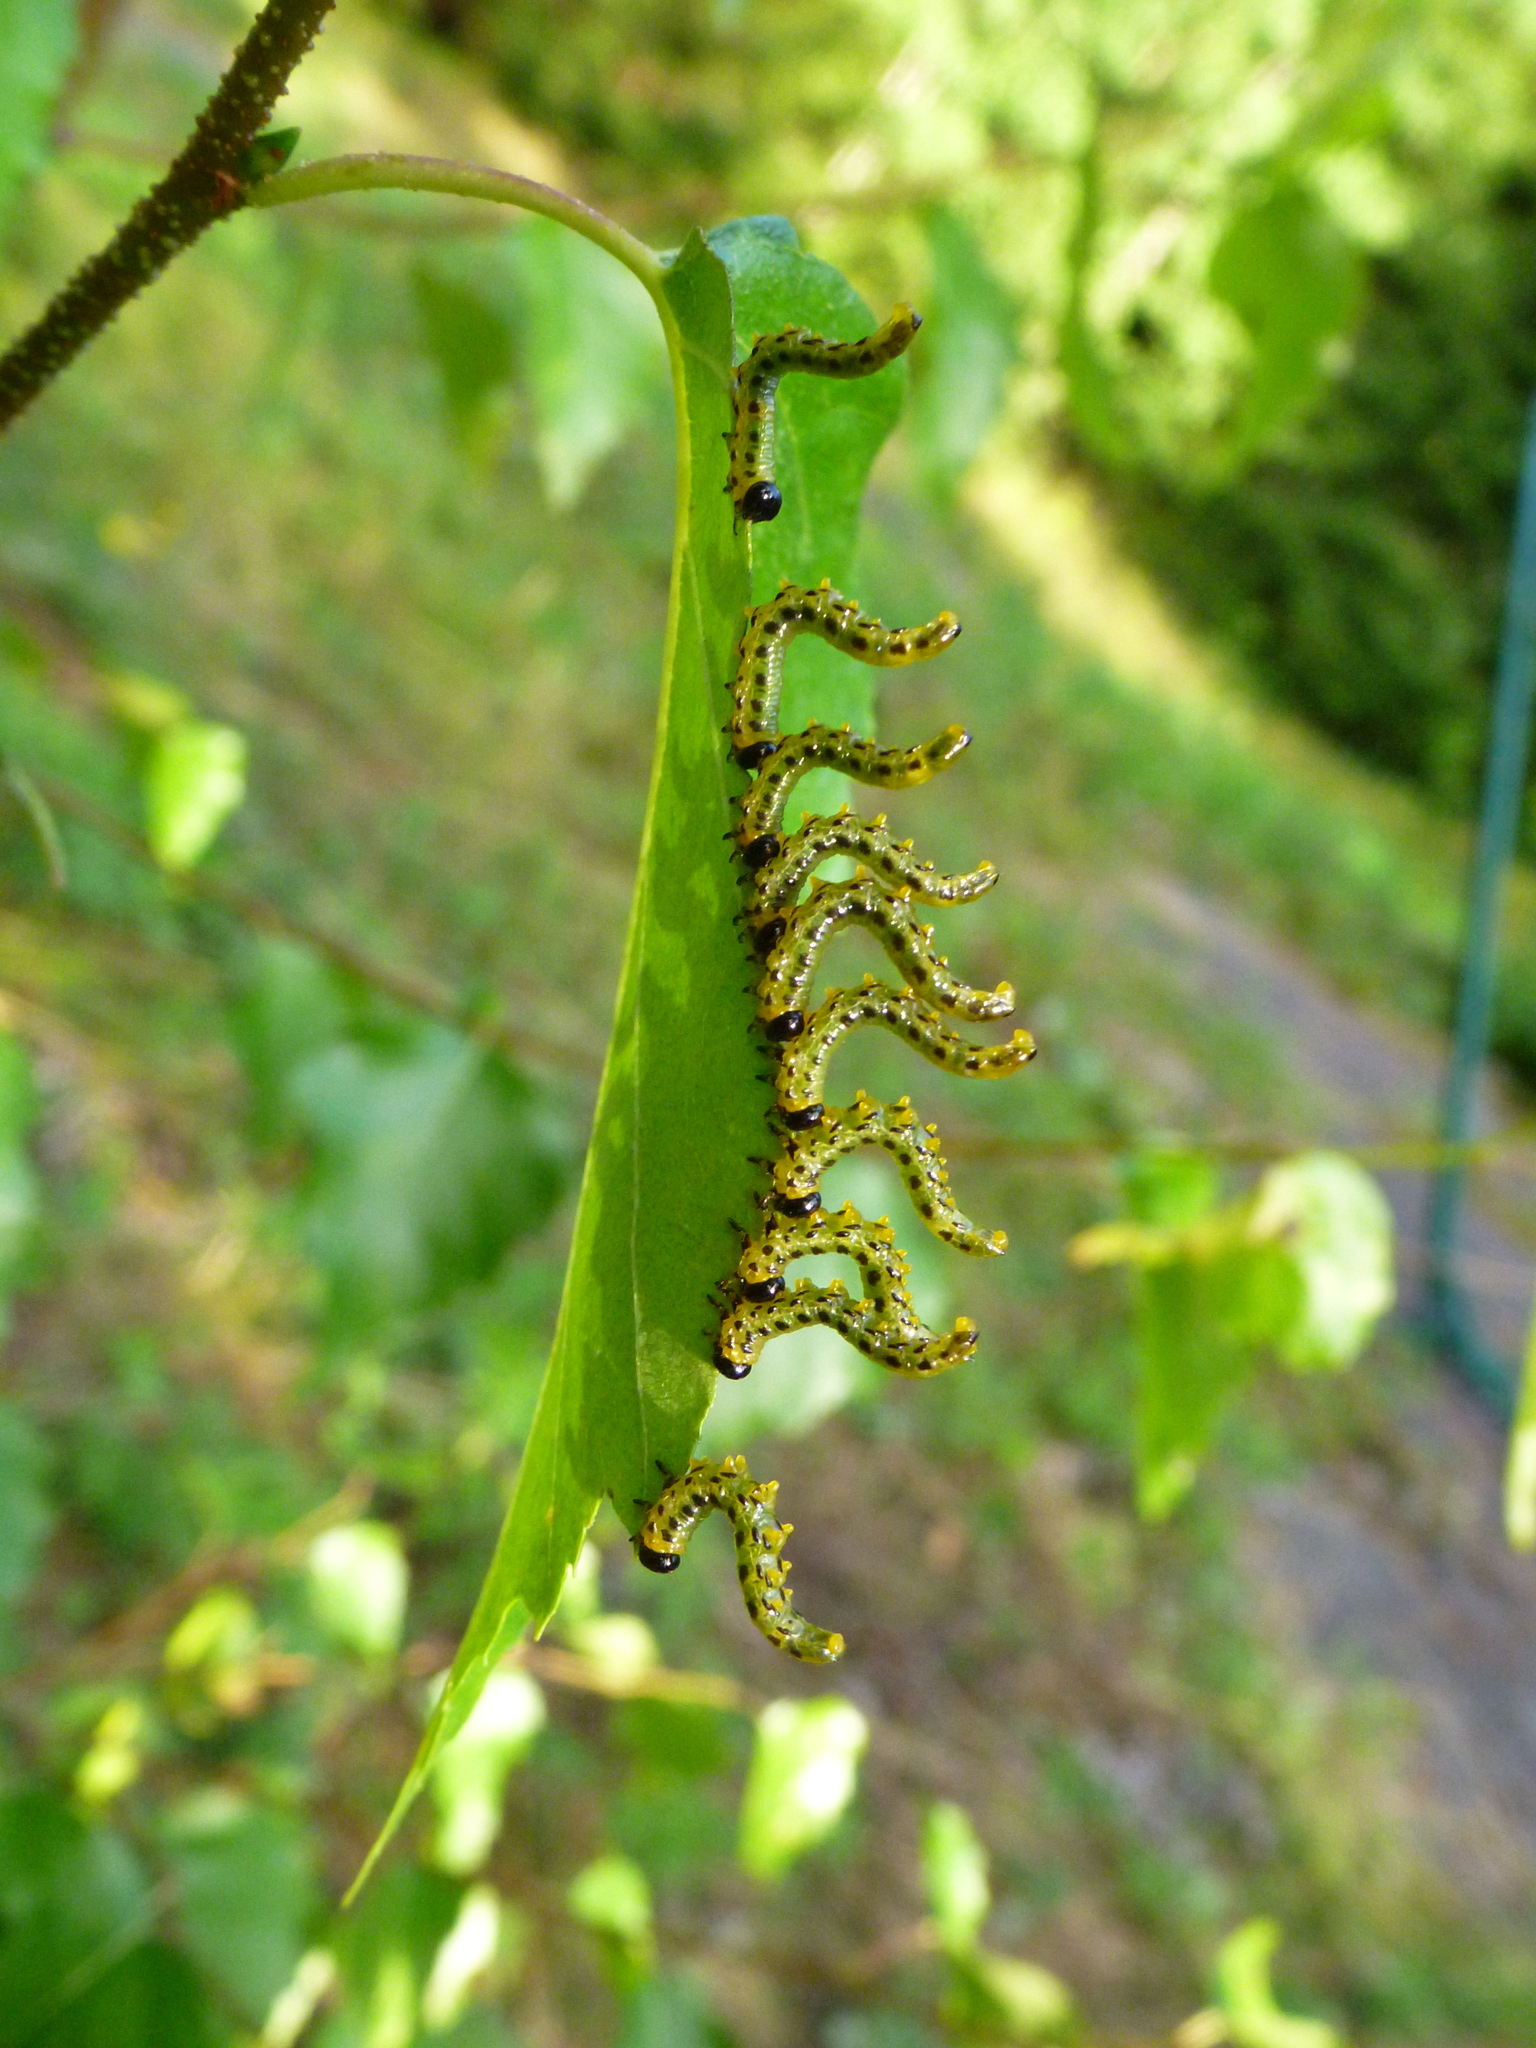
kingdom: Animalia
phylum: Arthropoda
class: Insecta
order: Hymenoptera
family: Tenthredinidae
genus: Craesus
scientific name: Craesus septentrionalis
